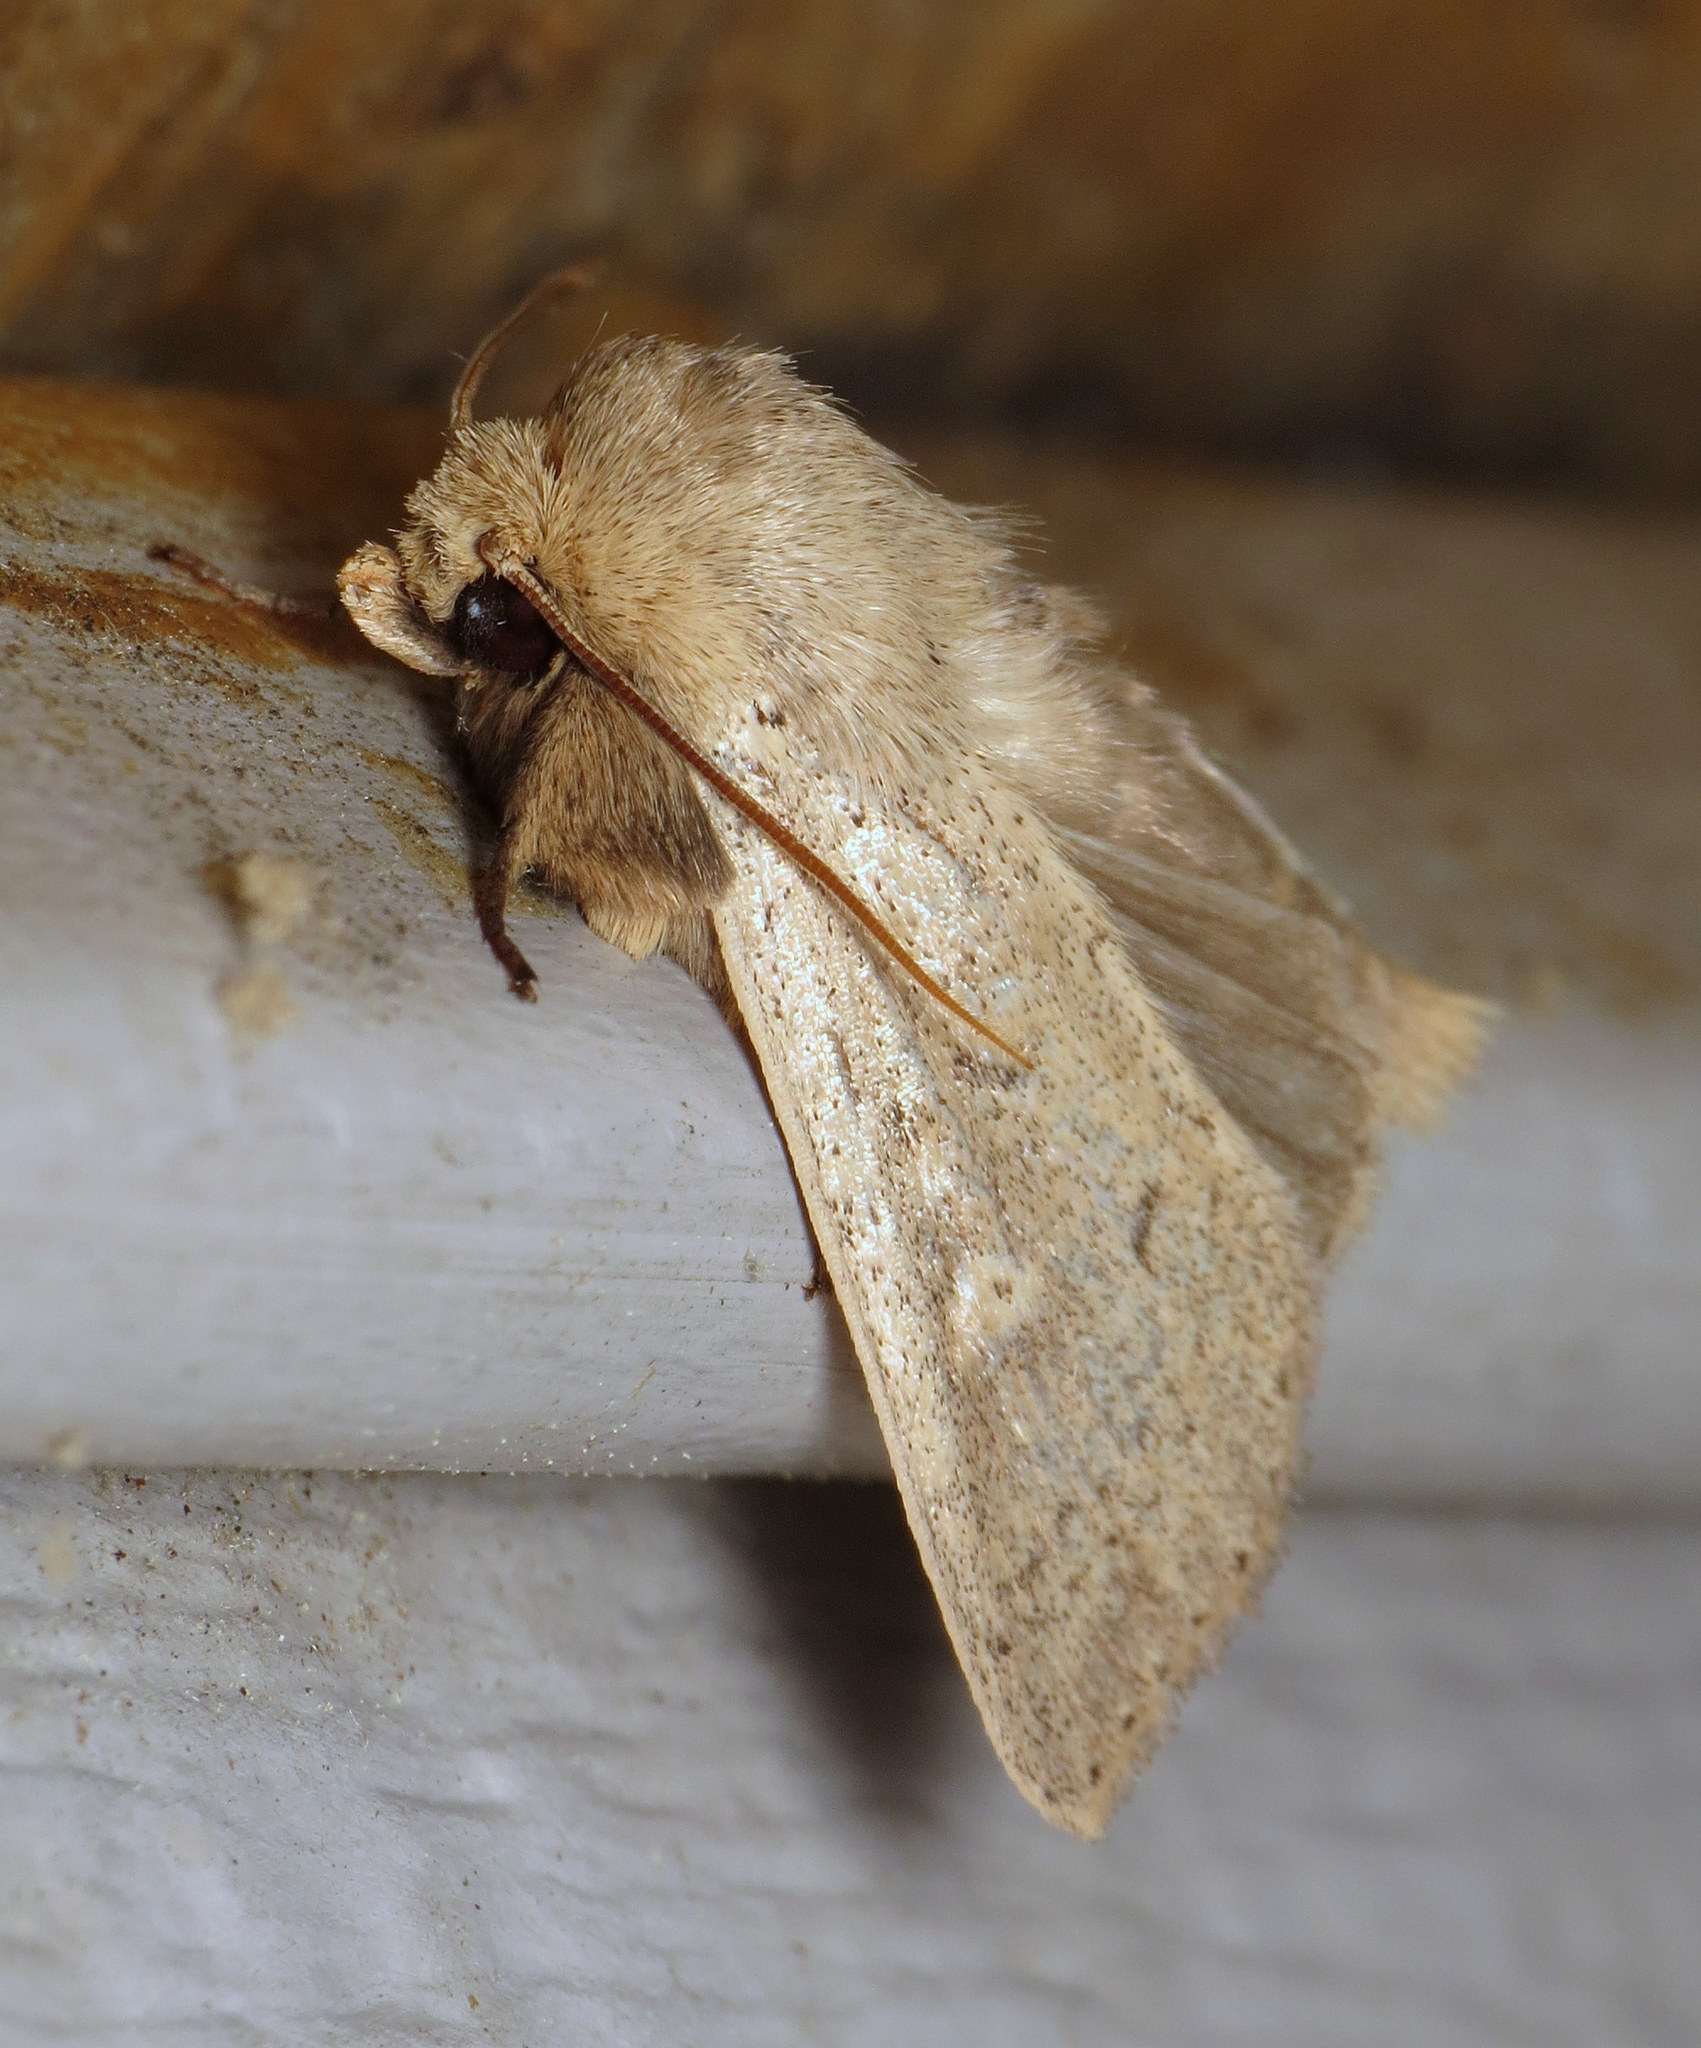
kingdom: Animalia
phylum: Arthropoda
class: Insecta
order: Lepidoptera
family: Noctuidae
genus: Leucania
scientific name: Leucania ursula
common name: Ursula wainscot
